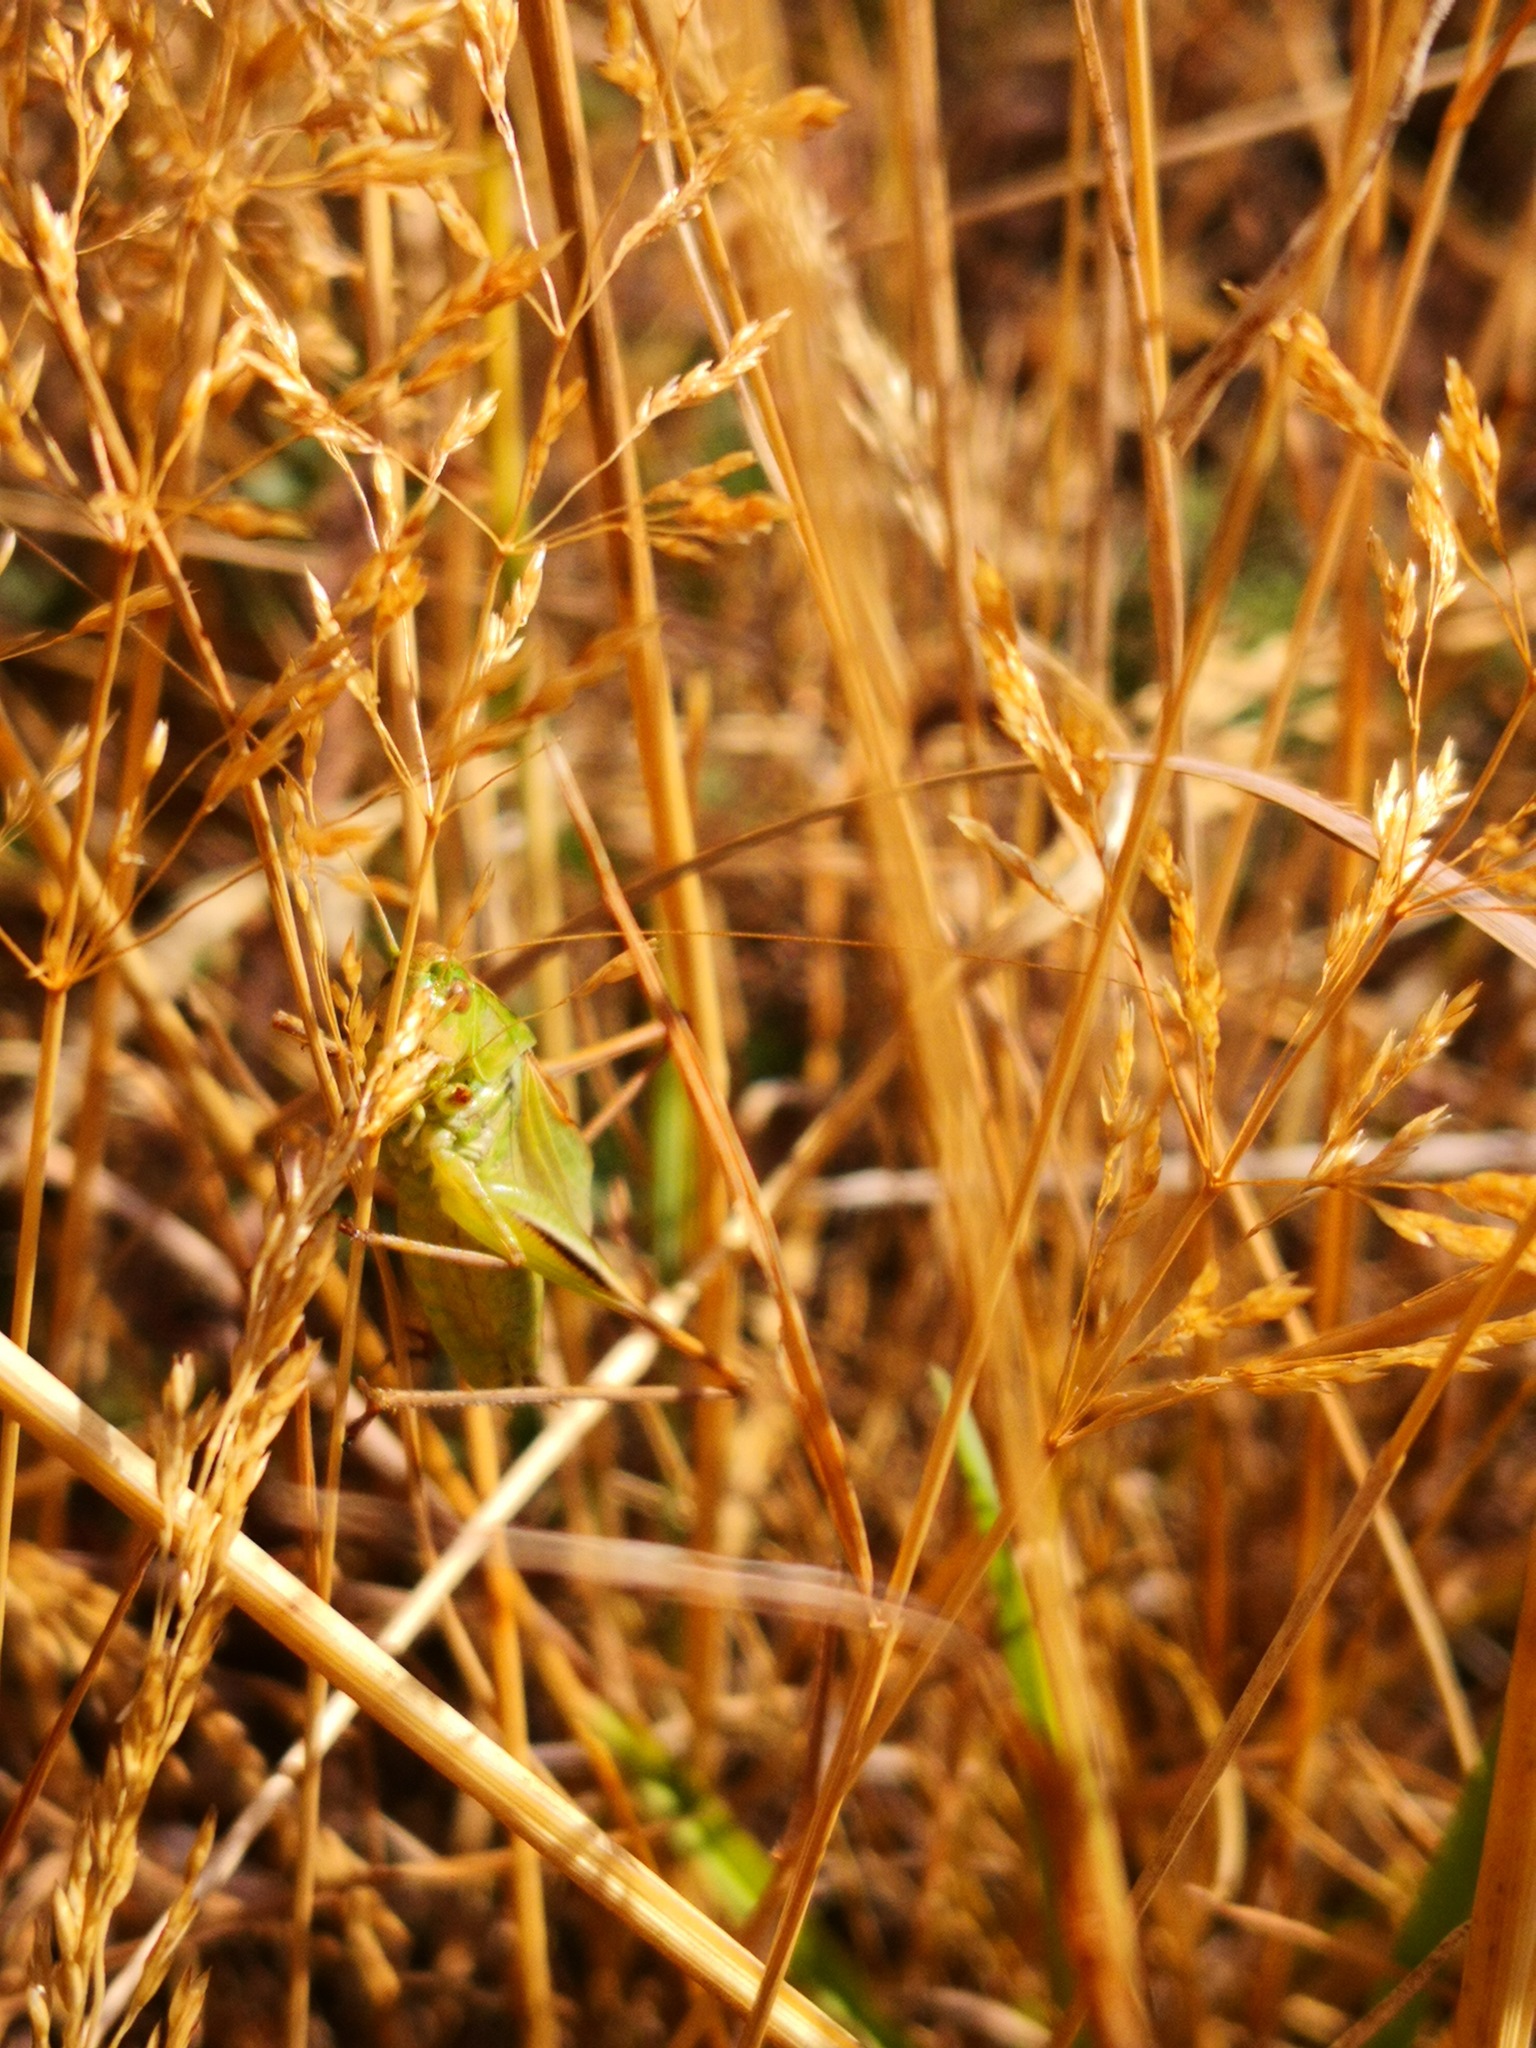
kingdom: Animalia
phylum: Arthropoda
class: Insecta
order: Orthoptera
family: Tettigoniidae
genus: Bicolorana
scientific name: Bicolorana bicolor
